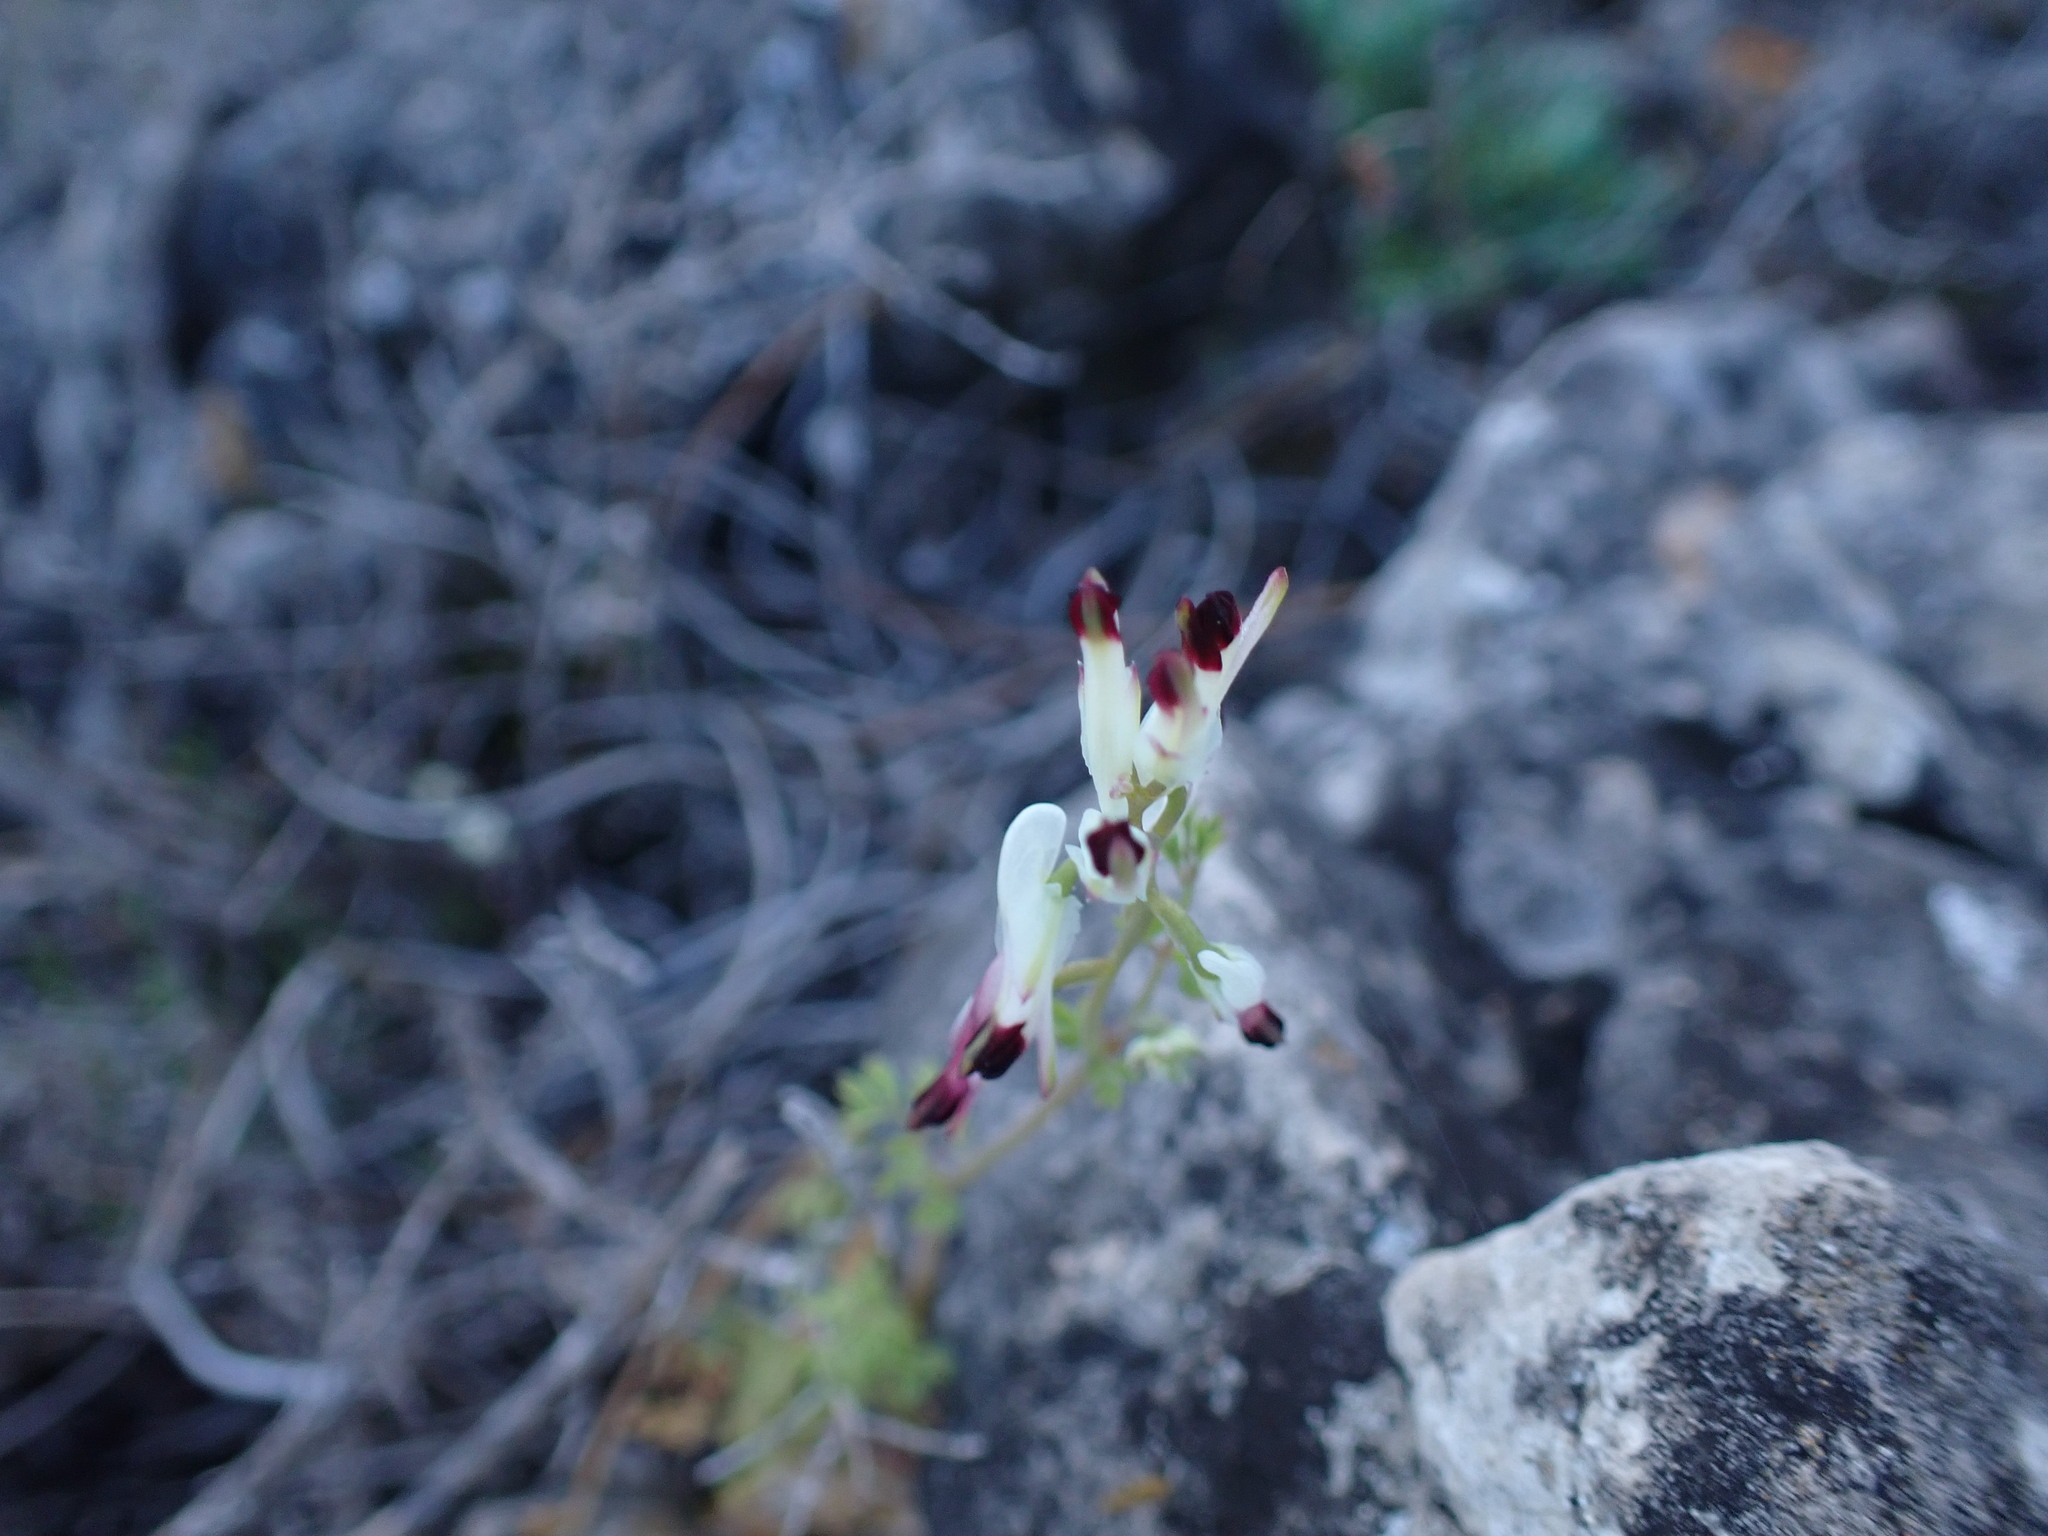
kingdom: Plantae
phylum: Tracheophyta
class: Magnoliopsida
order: Ranunculales
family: Papaveraceae
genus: Fumaria
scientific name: Fumaria capreolata
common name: White ramping-fumitory
